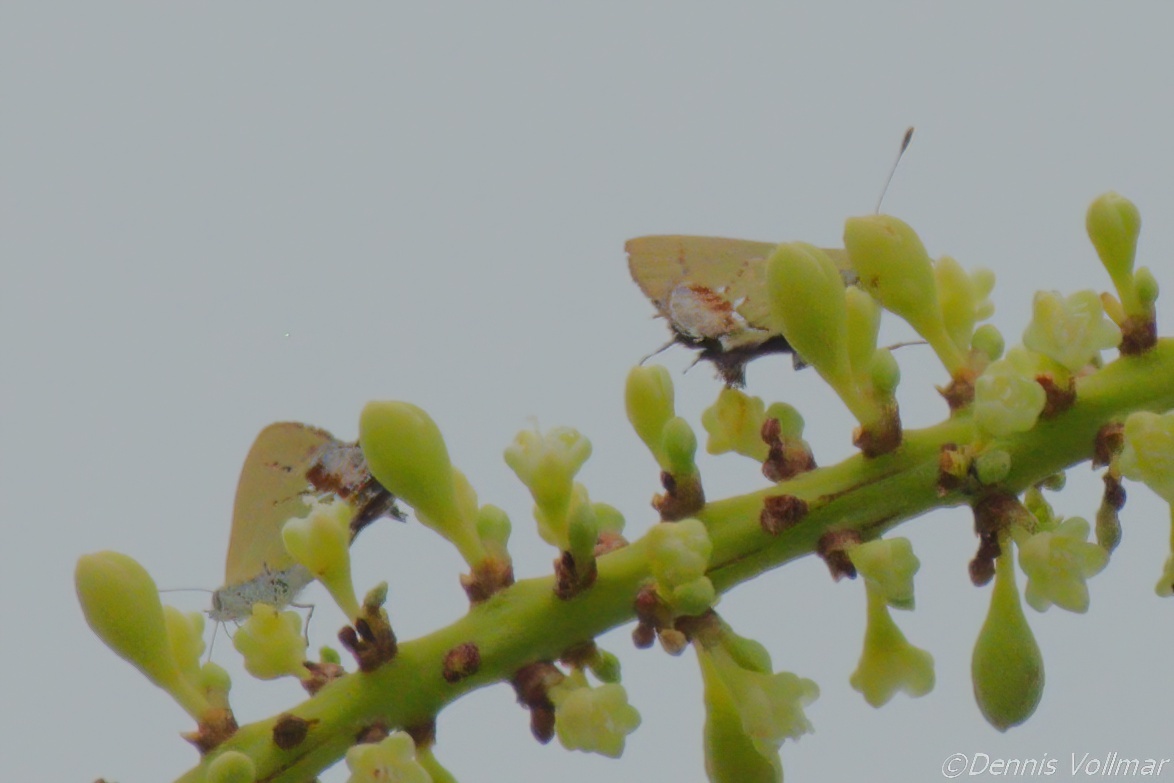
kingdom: Animalia
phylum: Arthropoda
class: Insecta
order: Lepidoptera
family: Lycaenidae
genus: Thecla
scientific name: Thecla maesites
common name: Verde azul hairstreak
